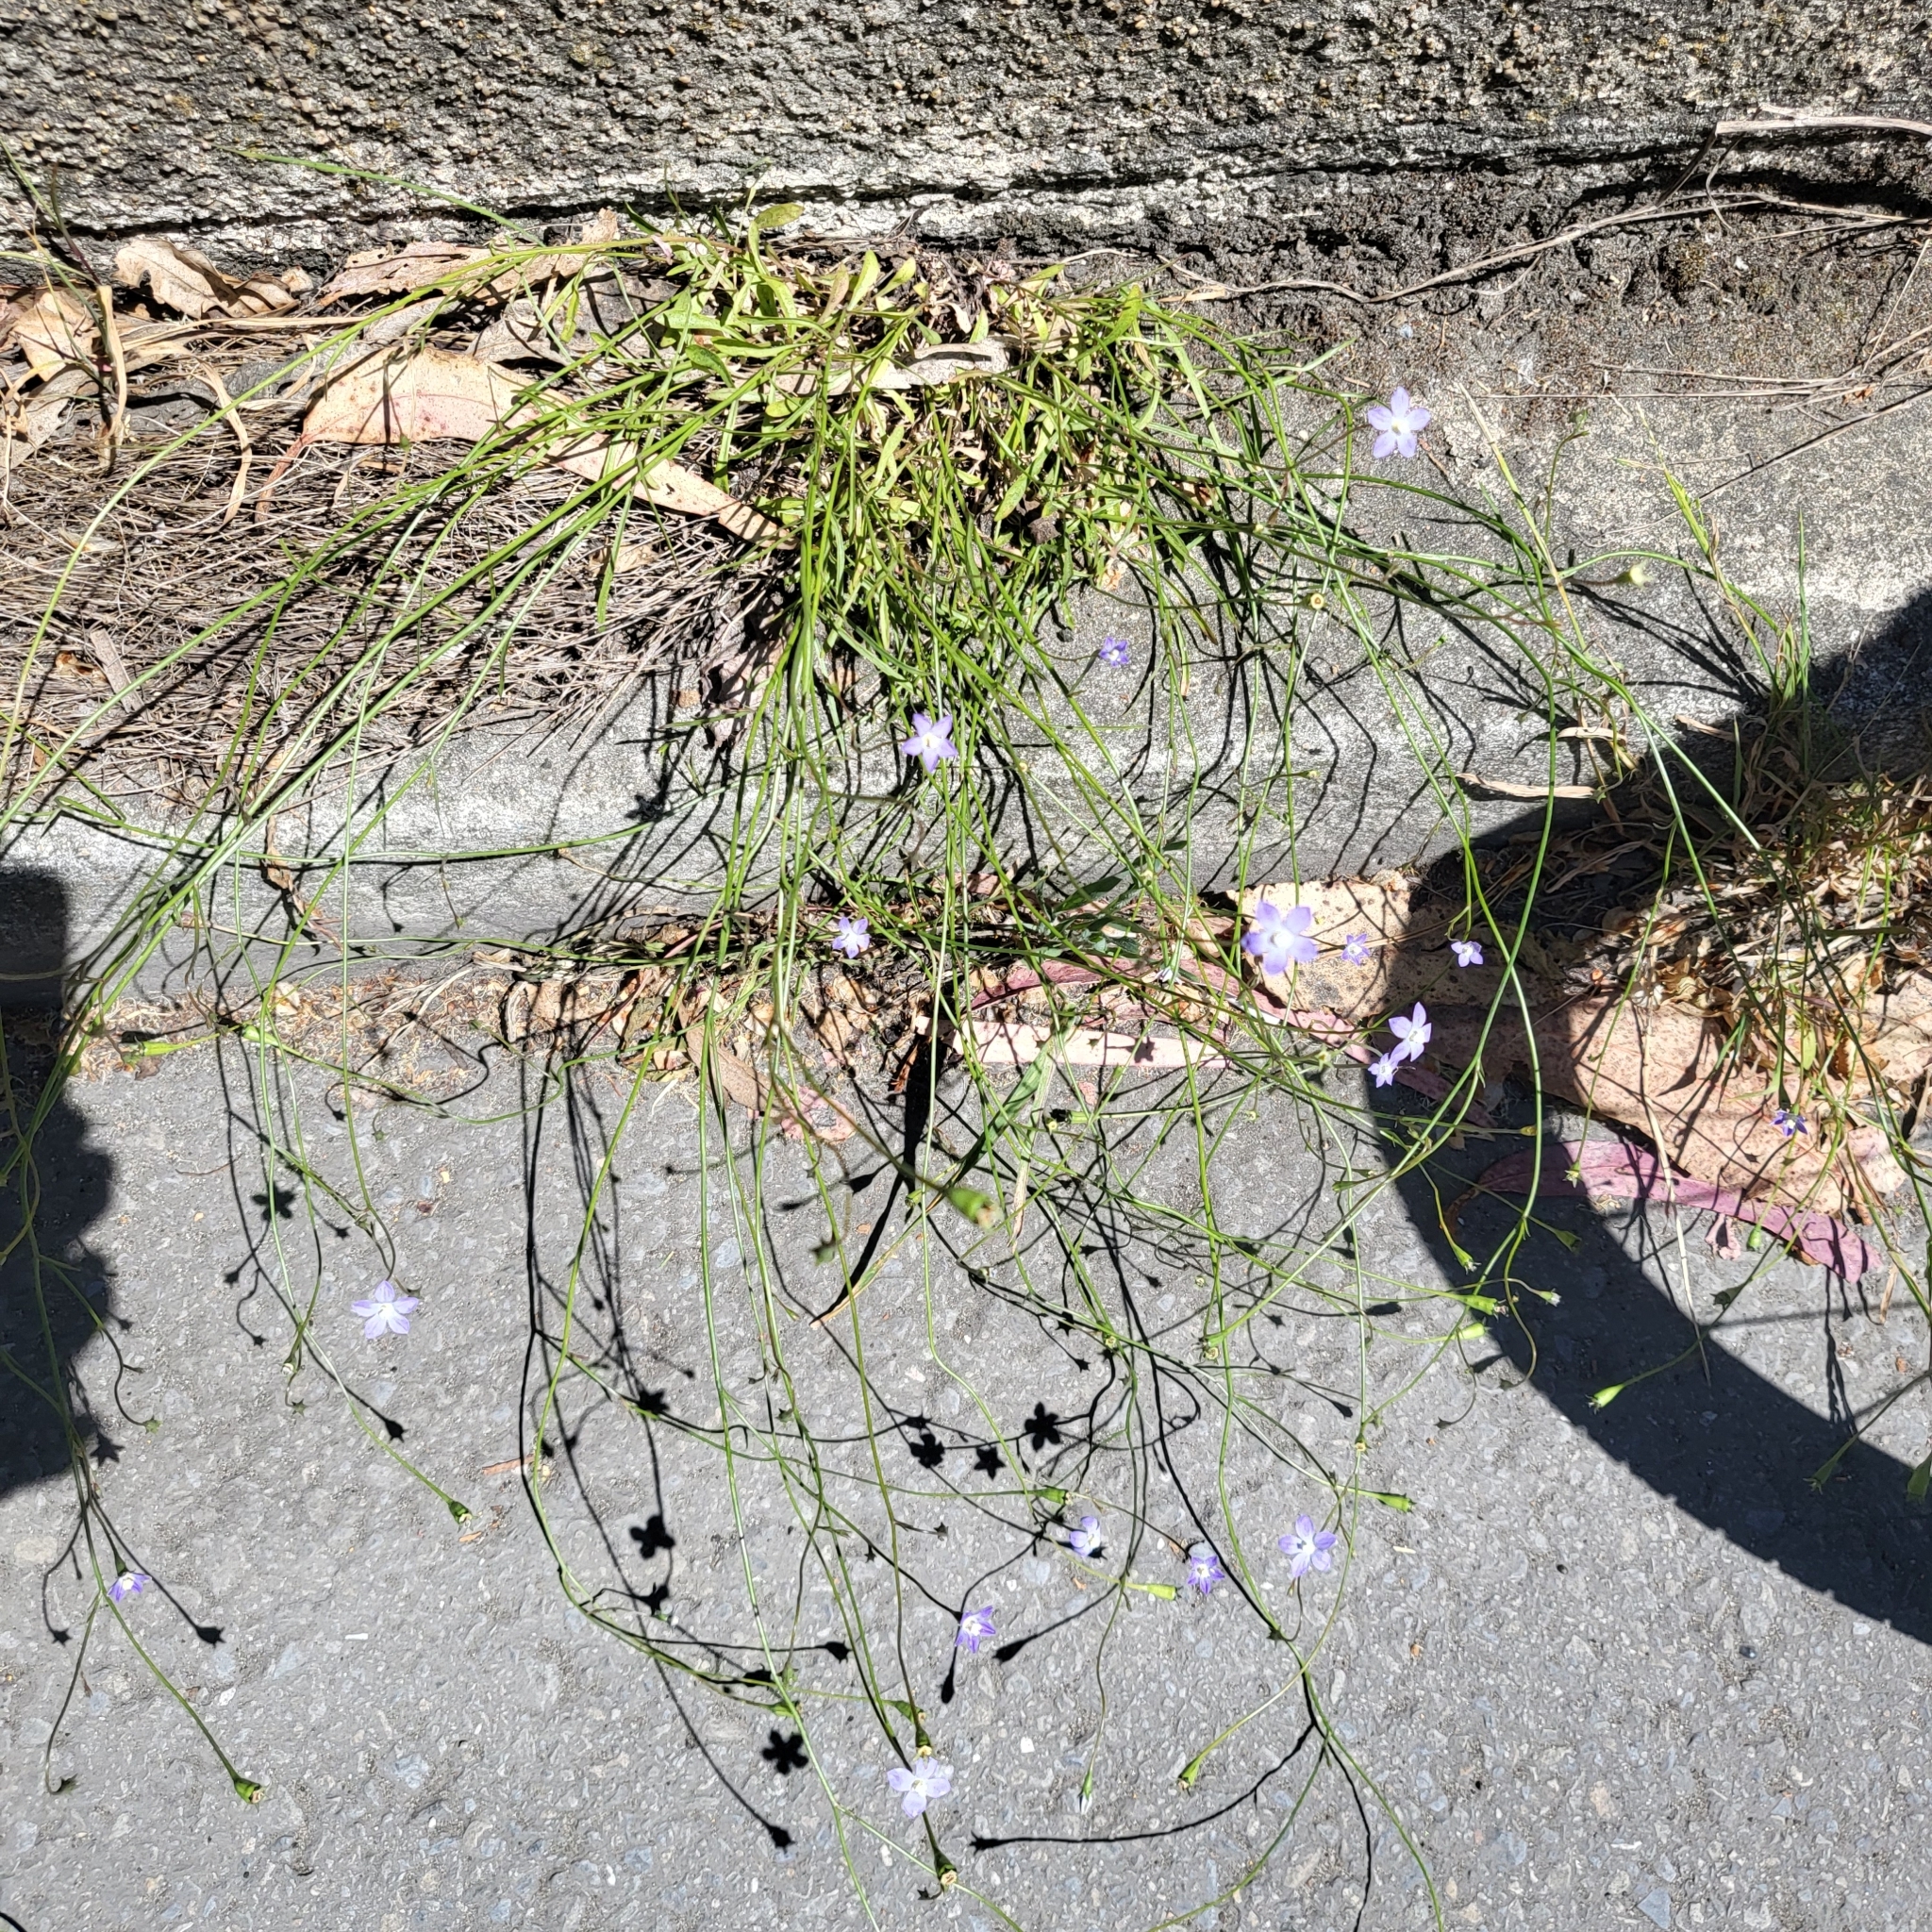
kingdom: Plantae
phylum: Tracheophyta
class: Magnoliopsida
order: Asterales
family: Campanulaceae
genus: Wahlenbergia
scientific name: Wahlenbergia marginata
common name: Southern rockbell
